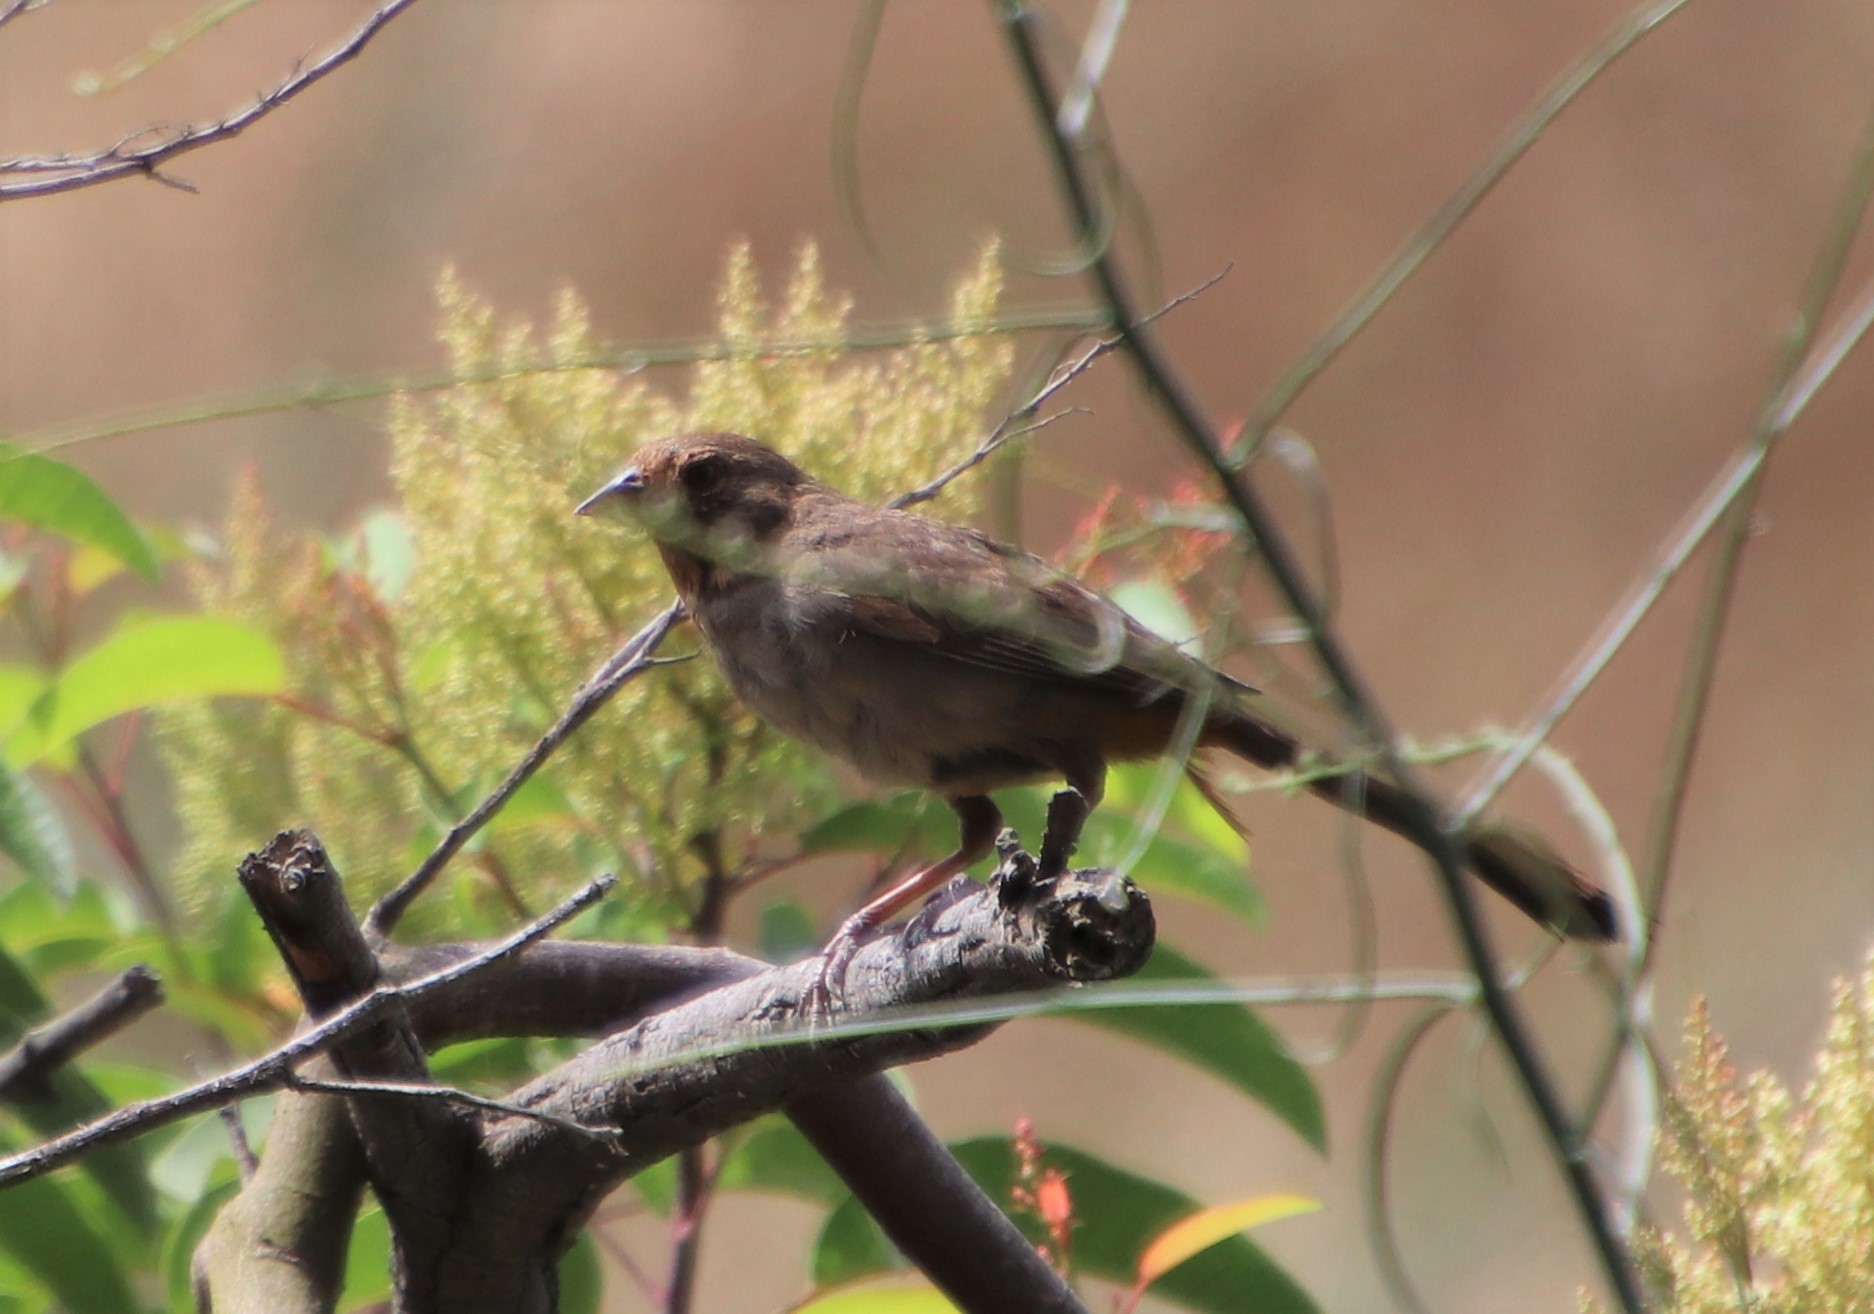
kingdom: Animalia
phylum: Chordata
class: Aves
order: Passeriformes
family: Passerellidae
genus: Melozone
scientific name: Melozone crissalis
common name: California towhee
